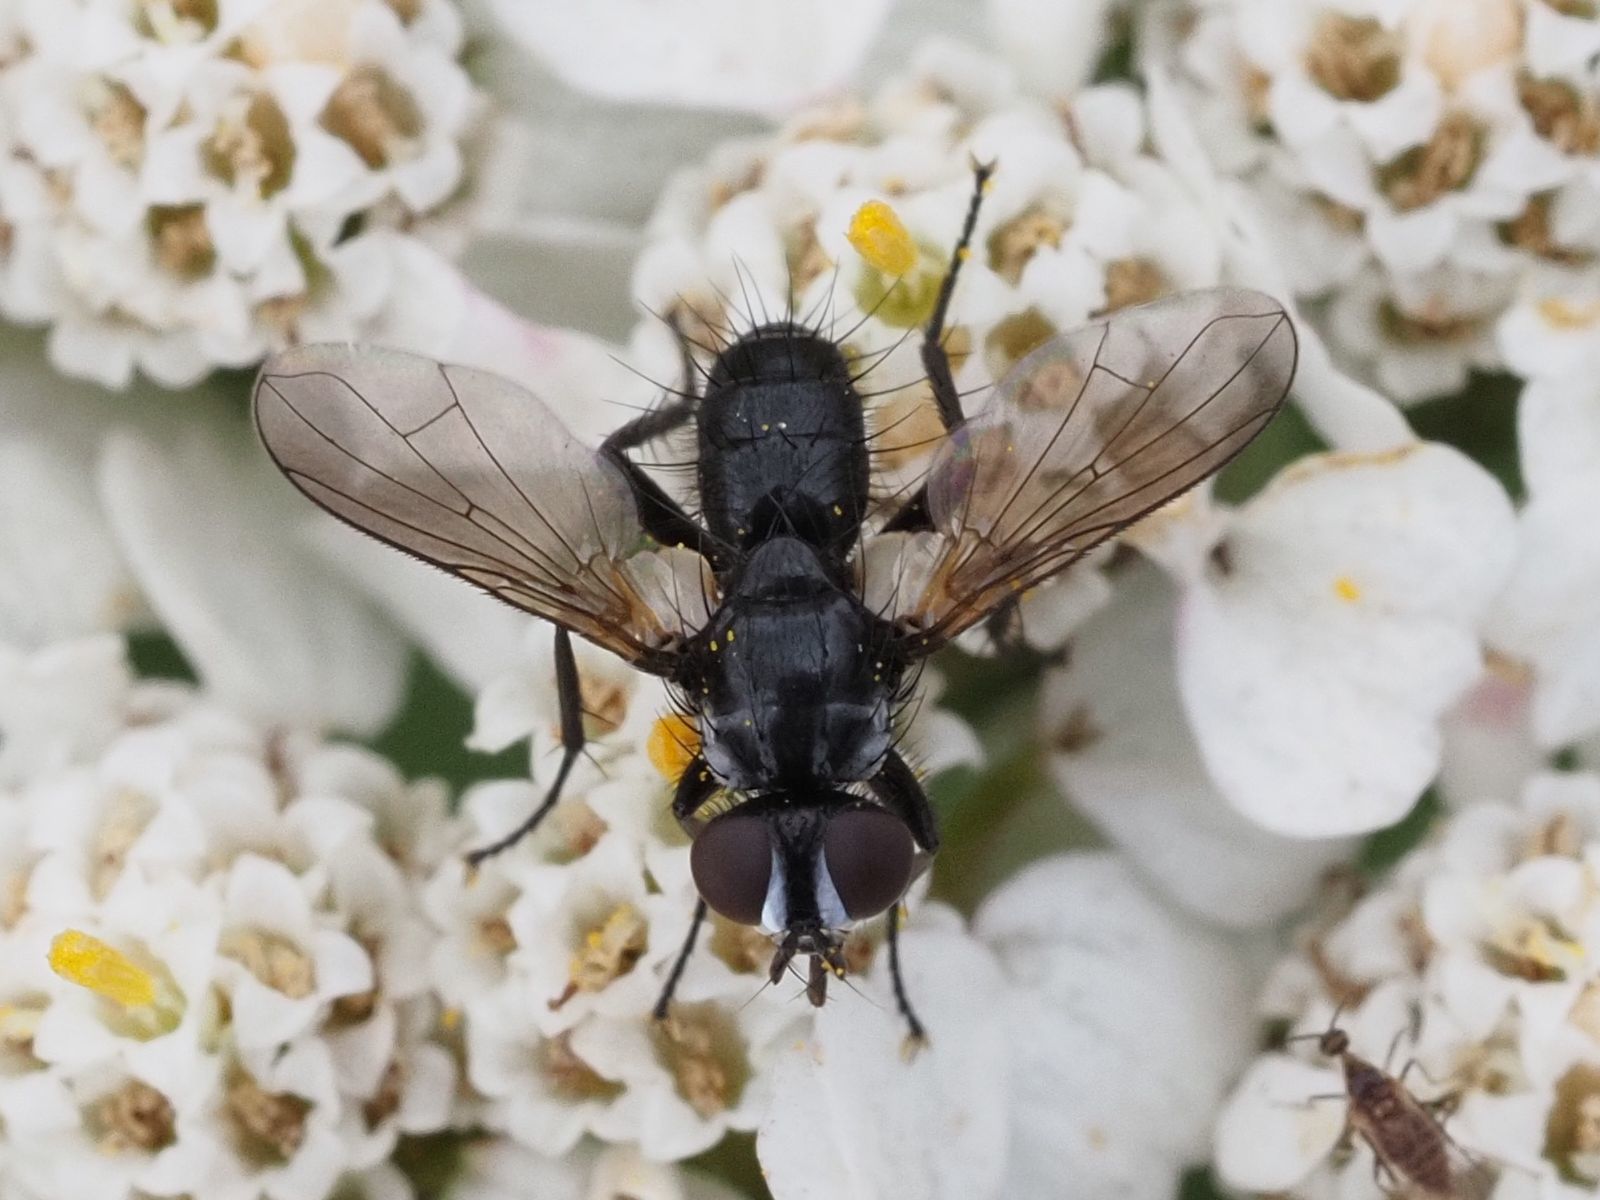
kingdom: Animalia
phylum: Arthropoda
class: Insecta
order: Diptera
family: Tachinidae
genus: Phania
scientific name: Phania funesta
